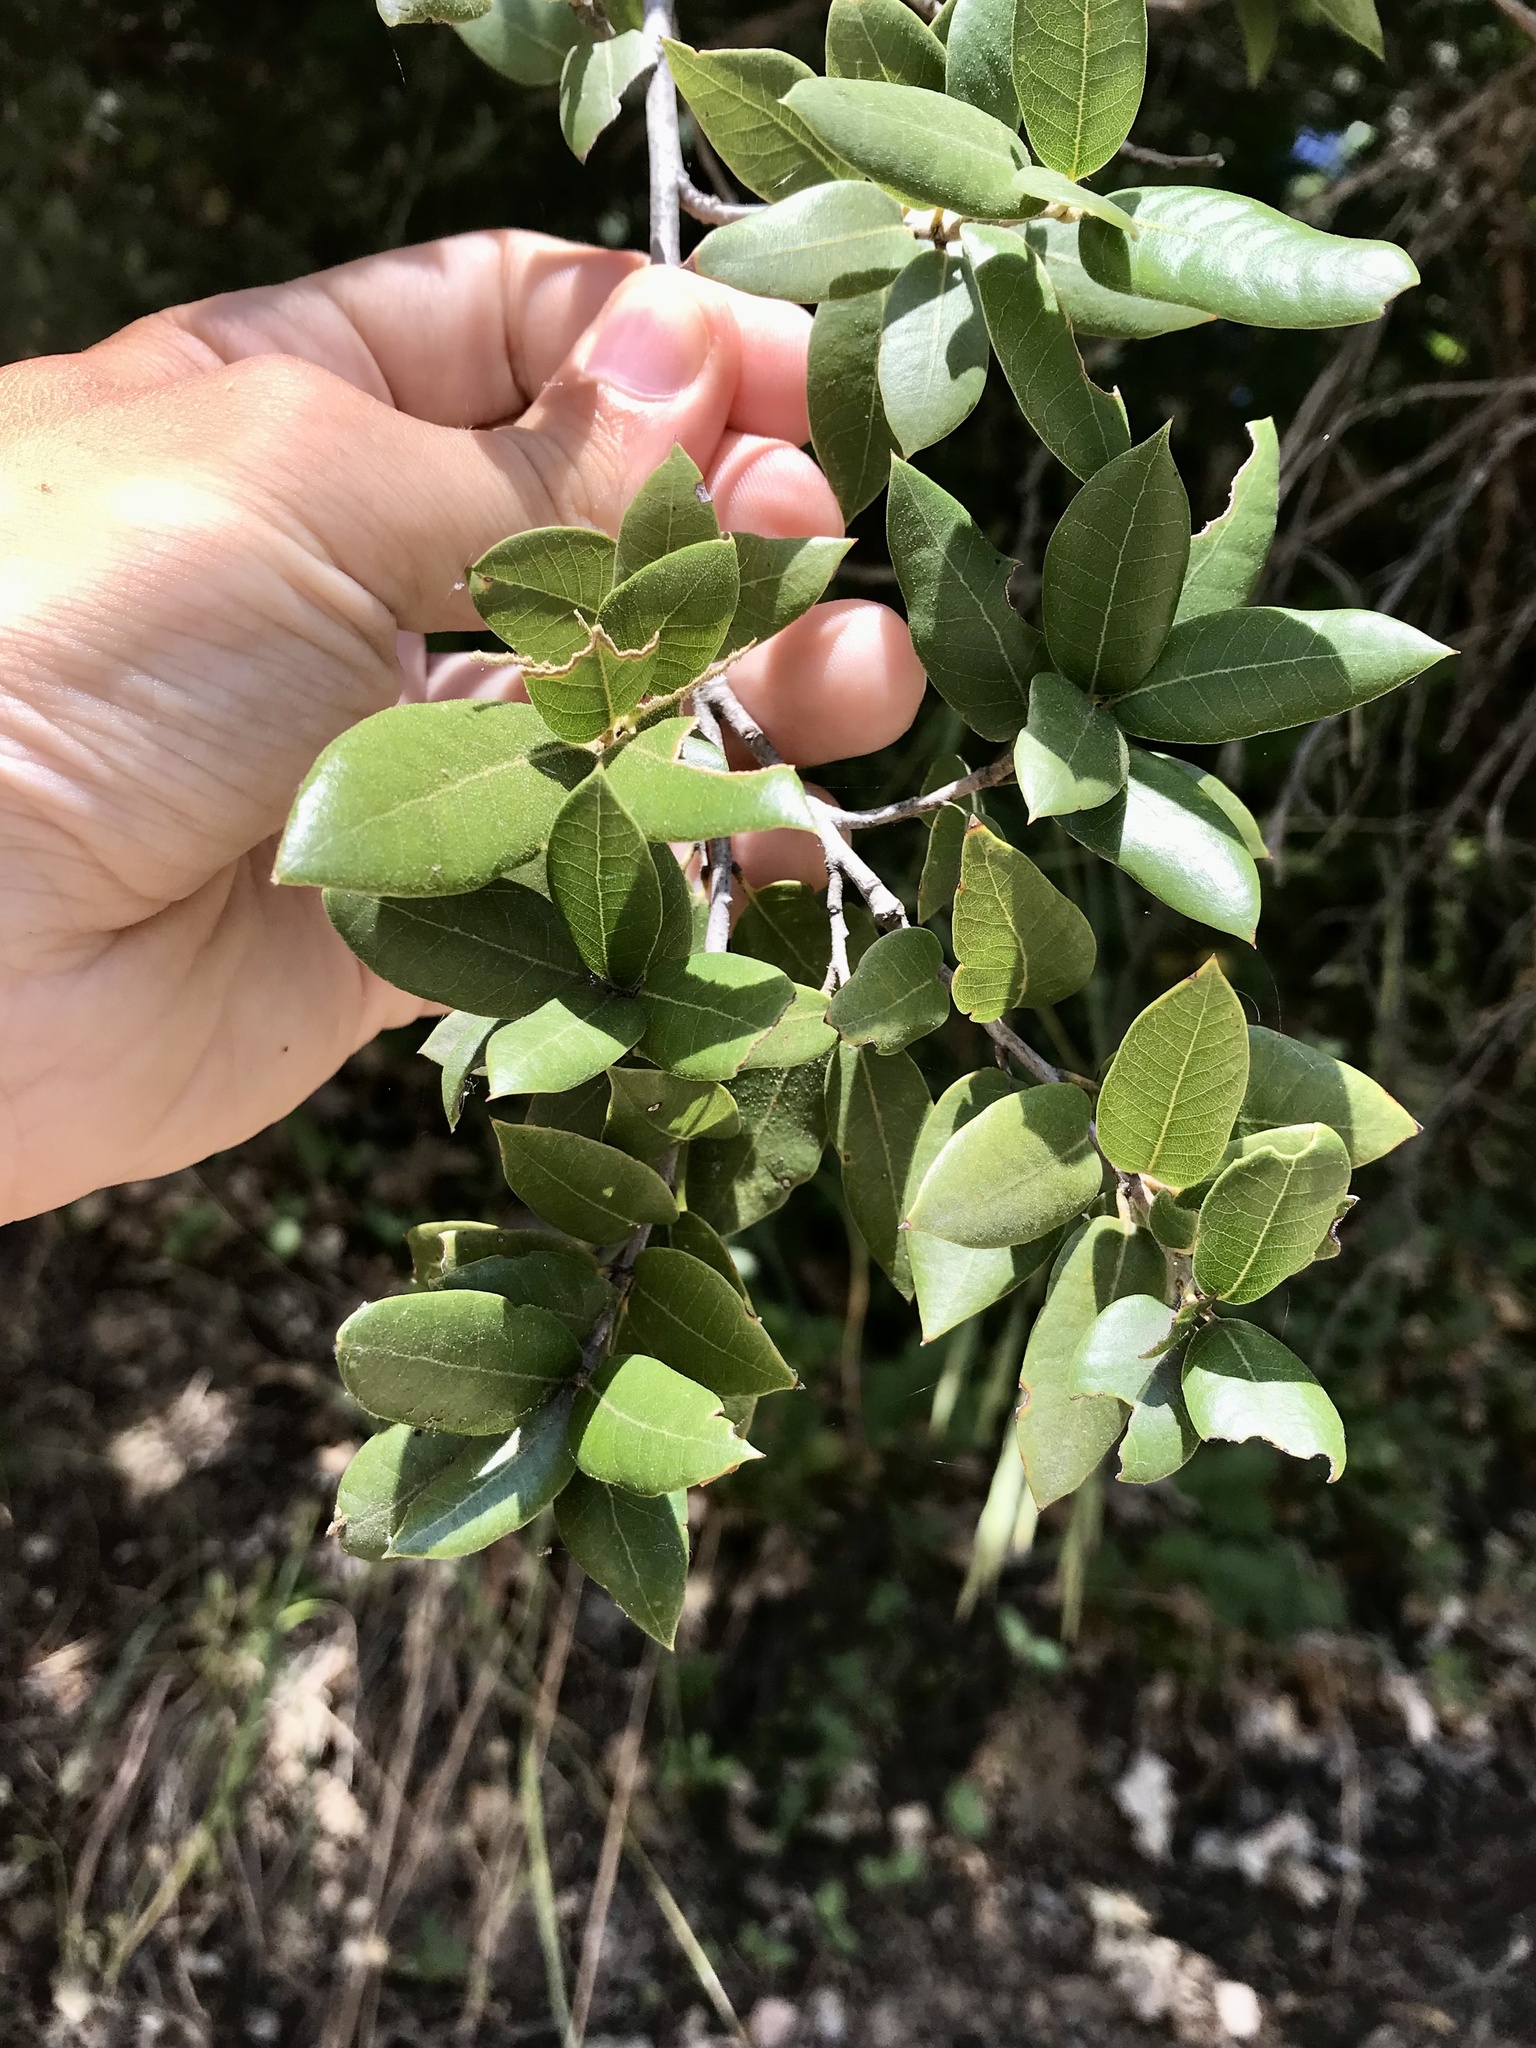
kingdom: Plantae
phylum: Tracheophyta
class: Magnoliopsida
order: Fagales
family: Fagaceae
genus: Quercus
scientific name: Quercus chrysolepis
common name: Canyon live oak
